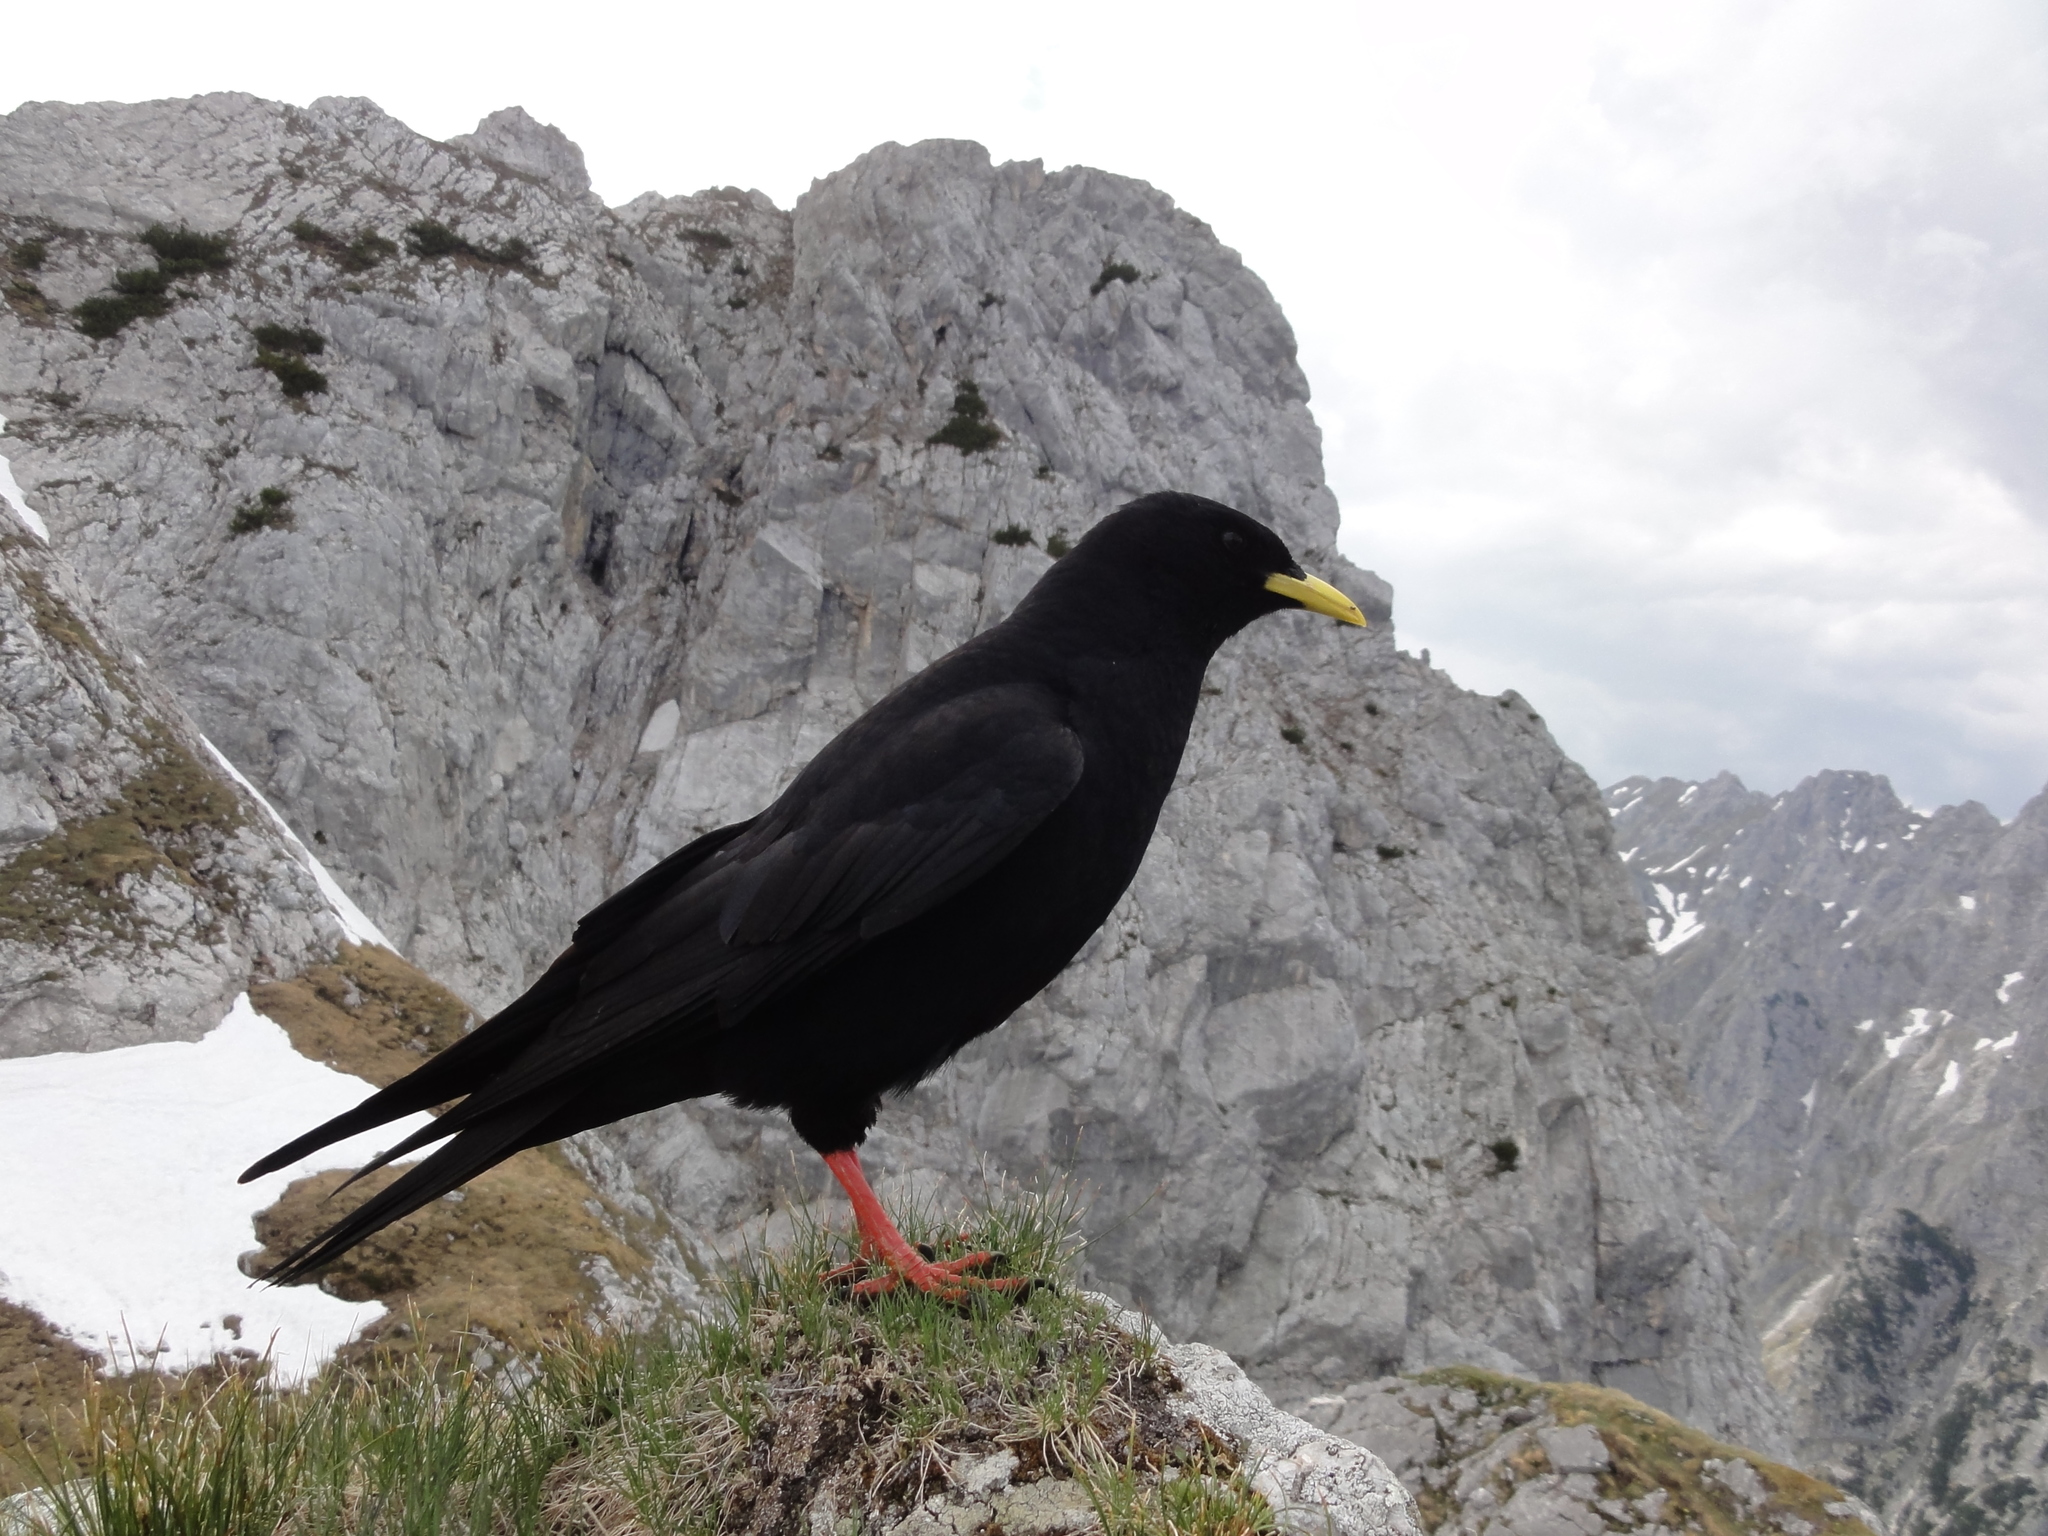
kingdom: Animalia
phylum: Chordata
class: Aves
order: Passeriformes
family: Corvidae
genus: Pyrrhocorax
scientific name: Pyrrhocorax graculus
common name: Alpine chough
